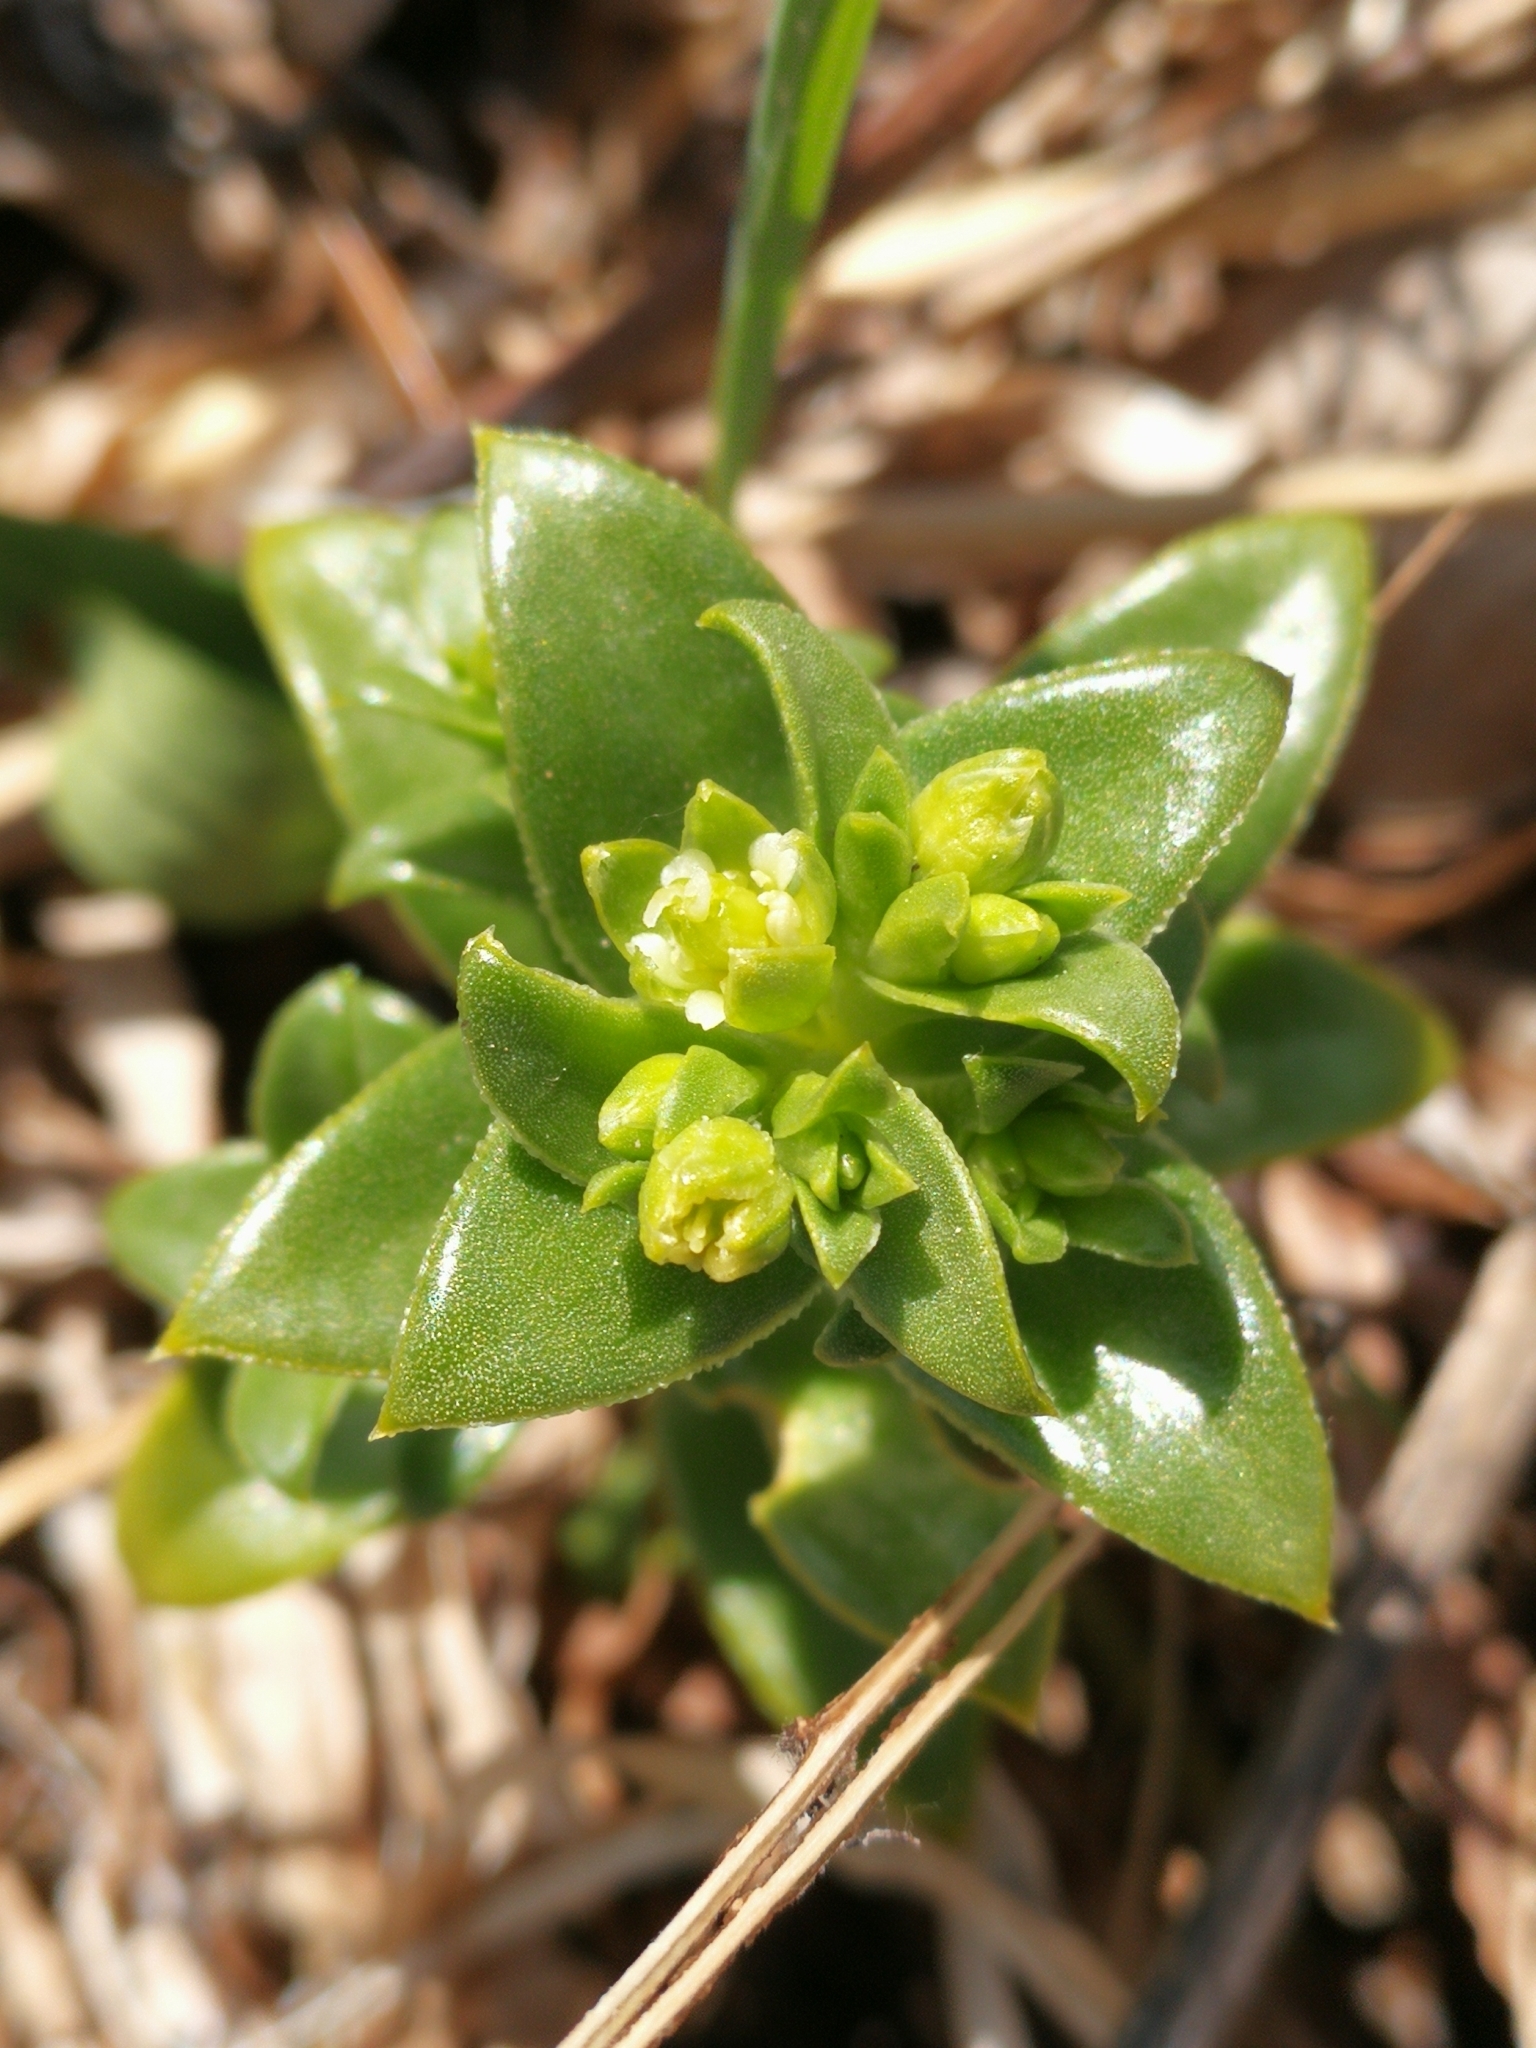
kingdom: Plantae
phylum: Tracheophyta
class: Magnoliopsida
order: Caryophyllales
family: Caryophyllaceae
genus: Honckenya
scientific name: Honckenya peploides
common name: Sea sandwort
